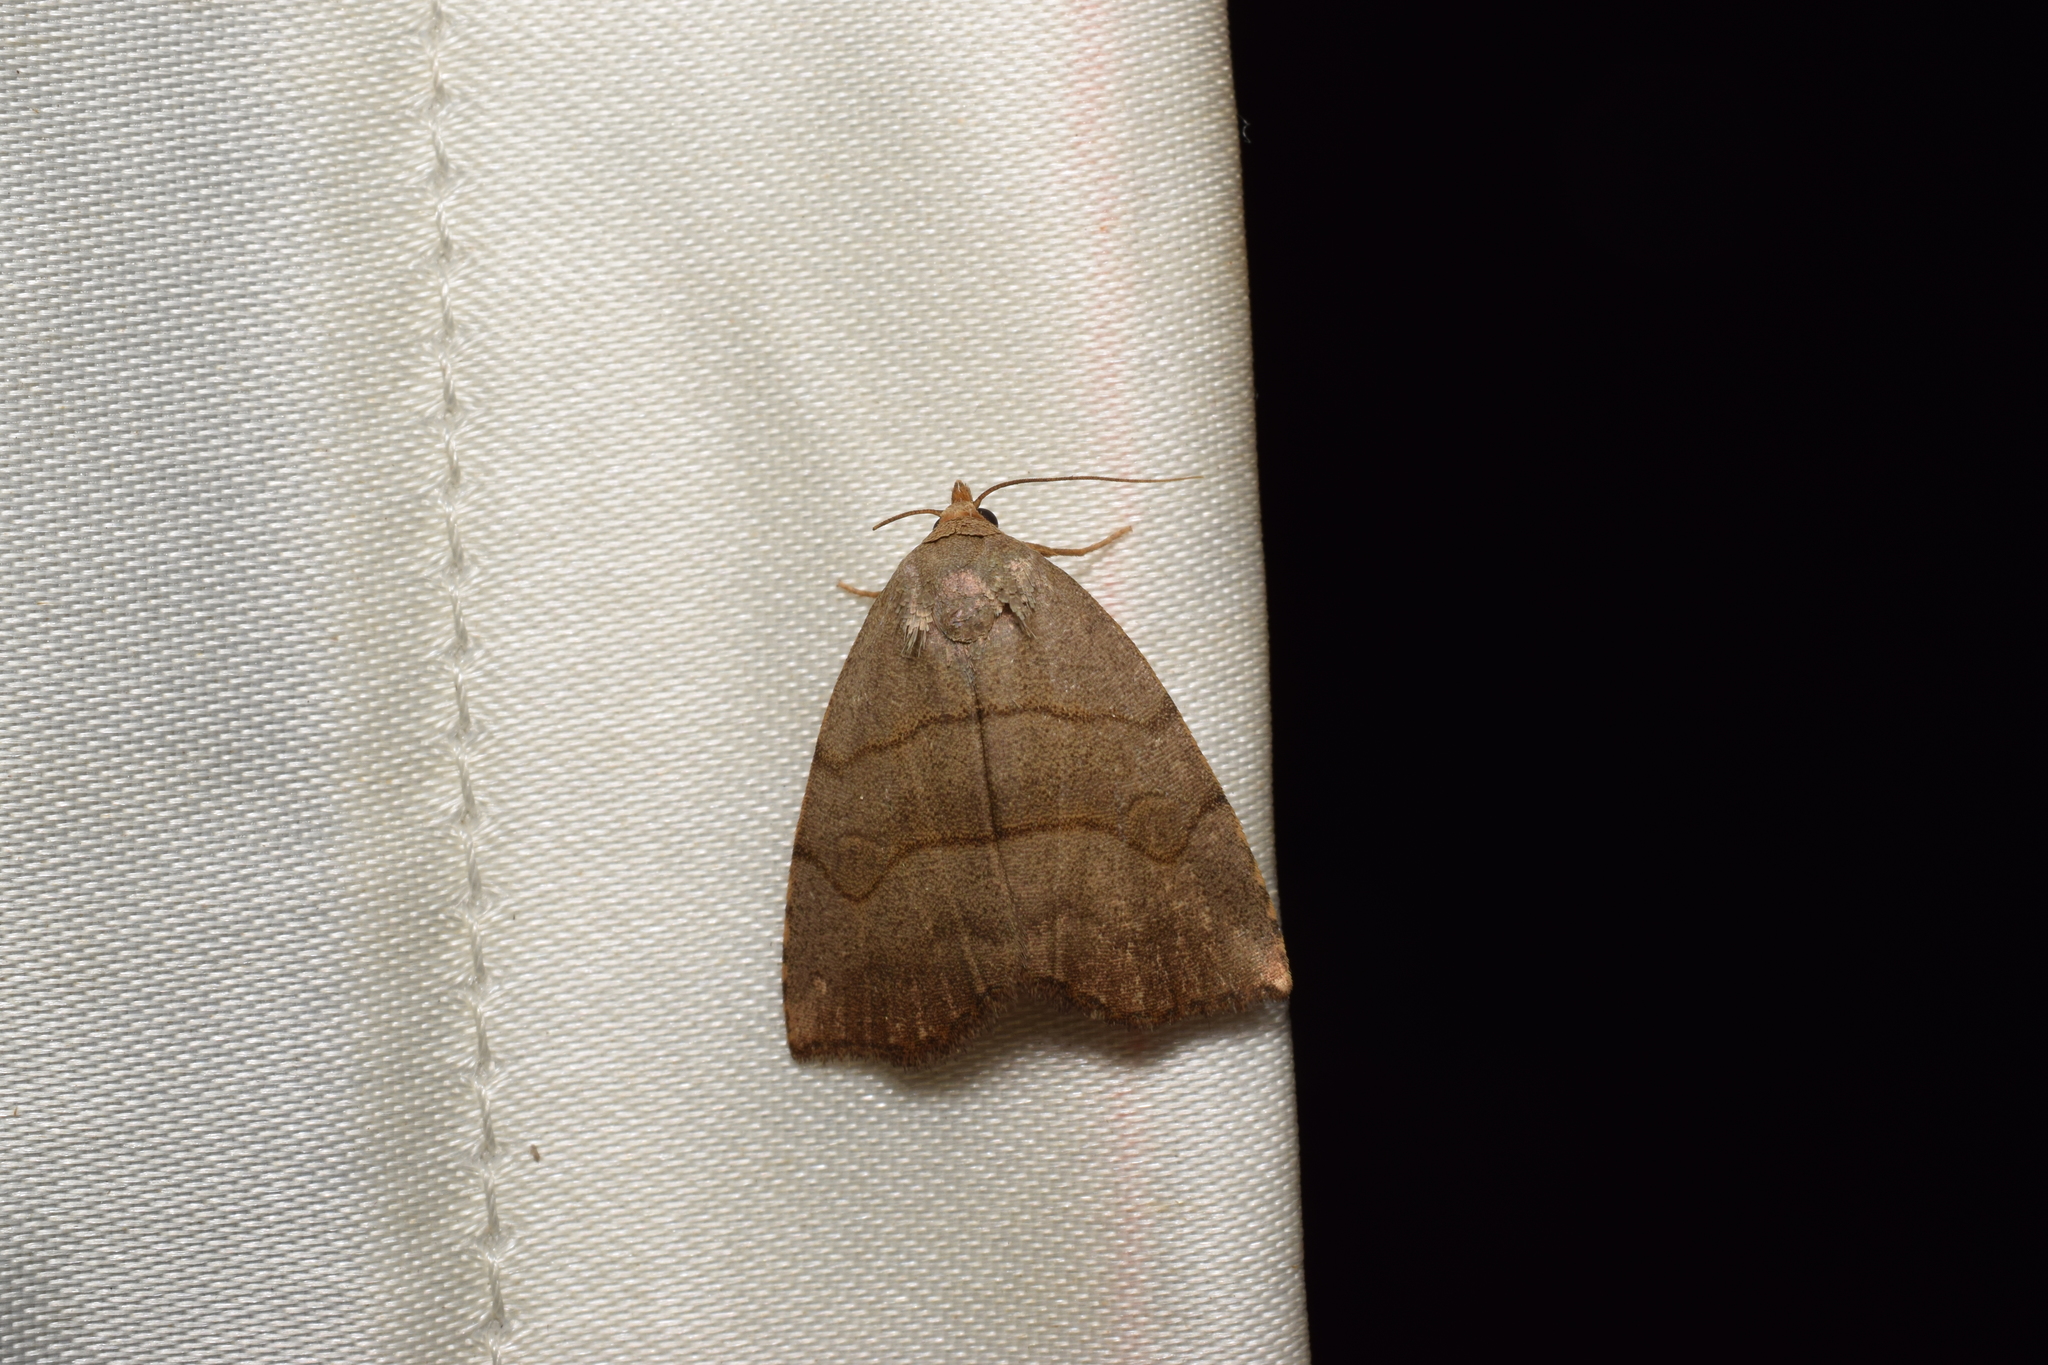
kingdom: Animalia
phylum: Arthropoda
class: Insecta
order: Lepidoptera
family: Erebidae
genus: Leiostola
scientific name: Leiostola mollis
